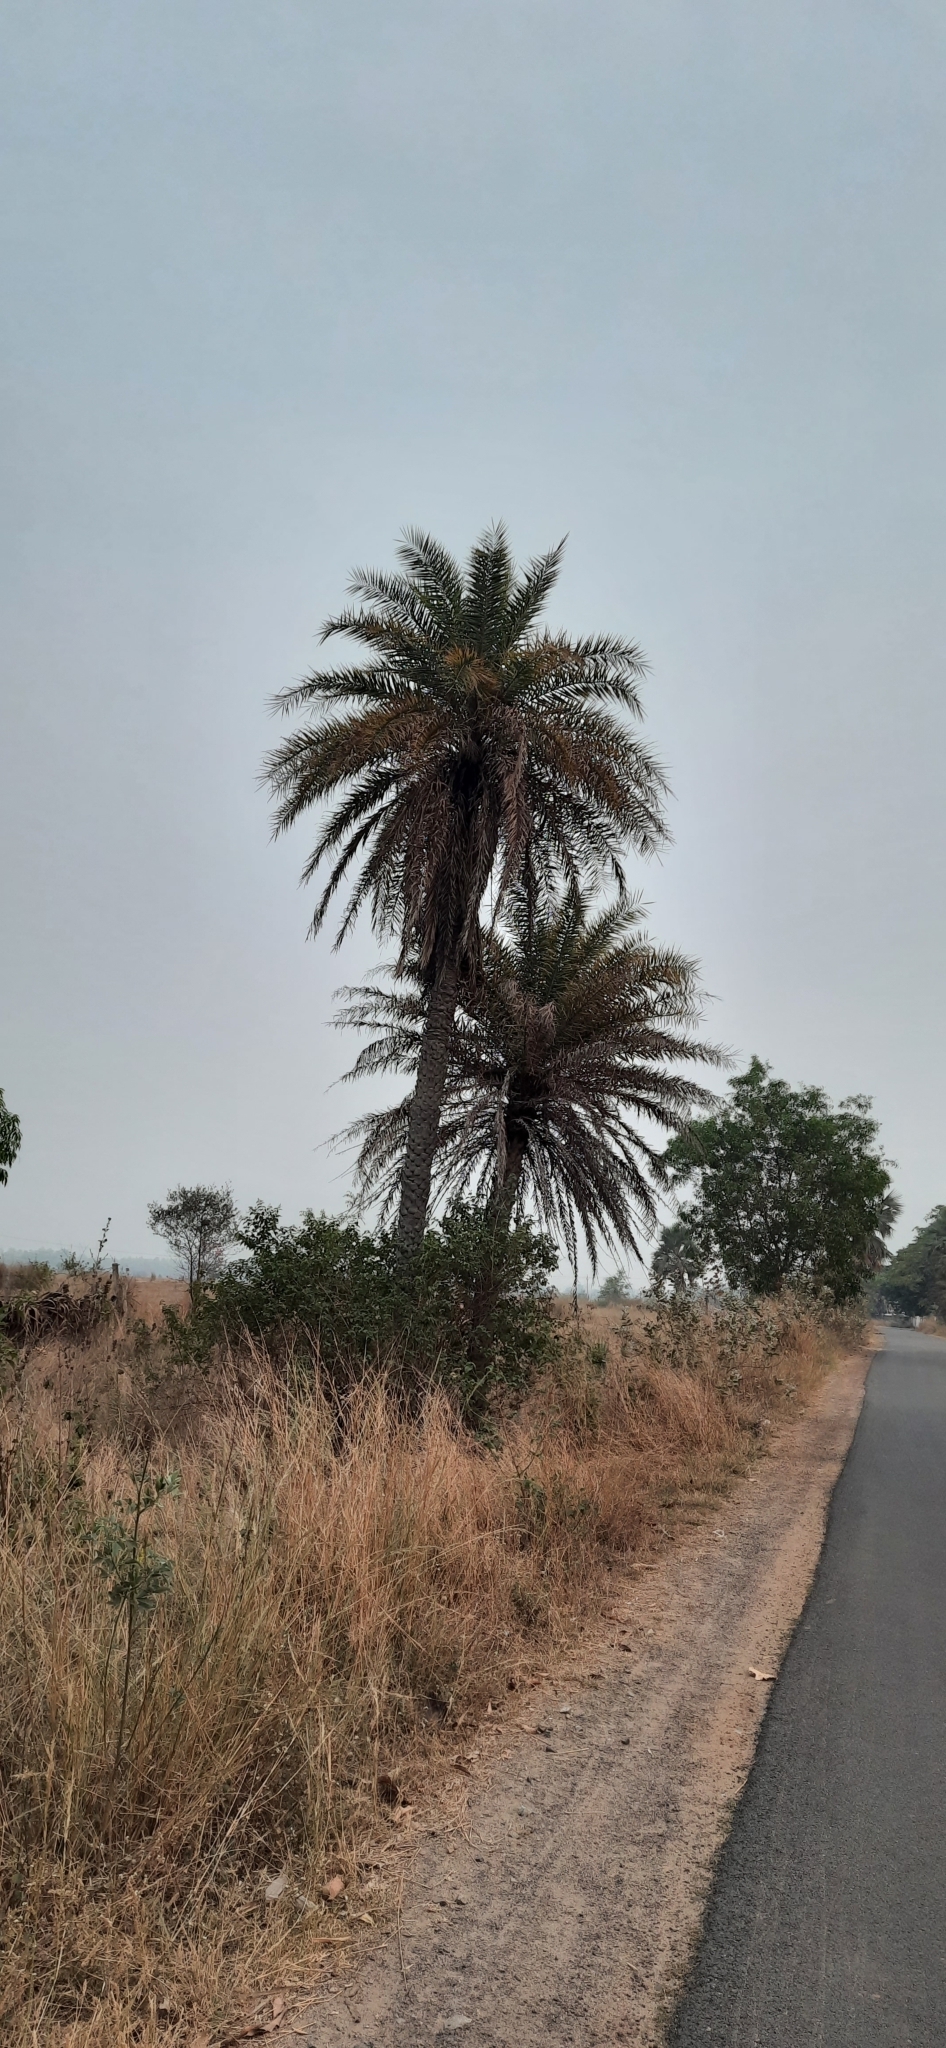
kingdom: Plantae
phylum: Tracheophyta
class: Liliopsida
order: Arecales
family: Arecaceae
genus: Borassus
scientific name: Borassus flabellifer
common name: Palmyra palm
